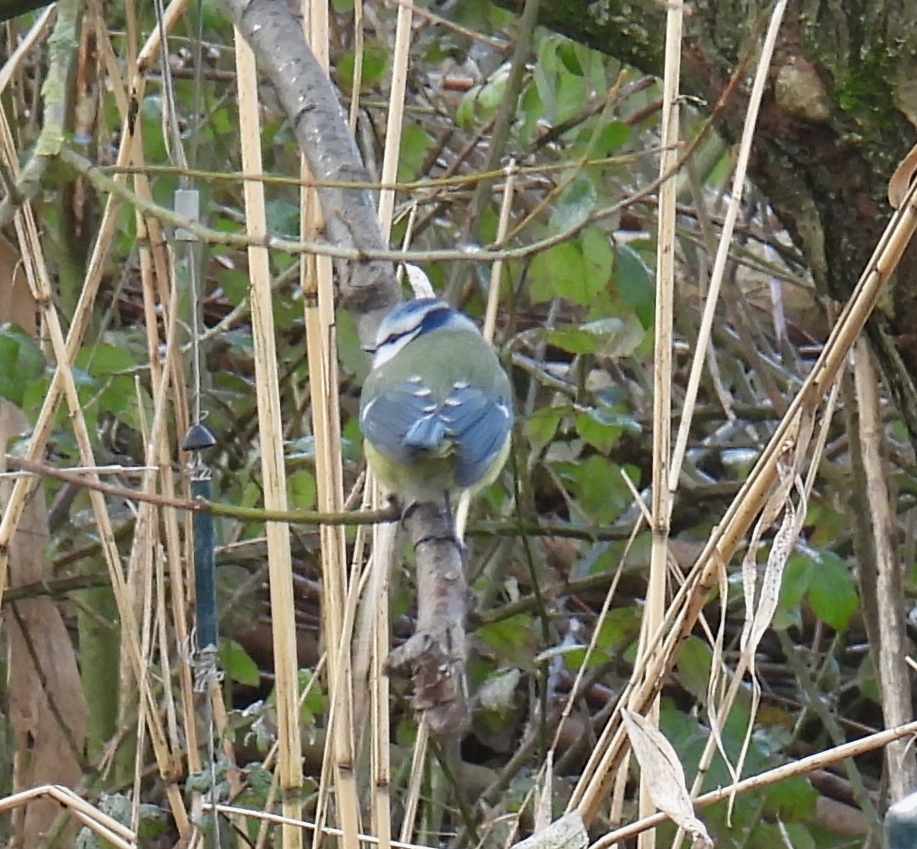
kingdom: Animalia
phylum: Chordata
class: Aves
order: Passeriformes
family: Paridae
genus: Cyanistes
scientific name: Cyanistes caeruleus
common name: Eurasian blue tit
